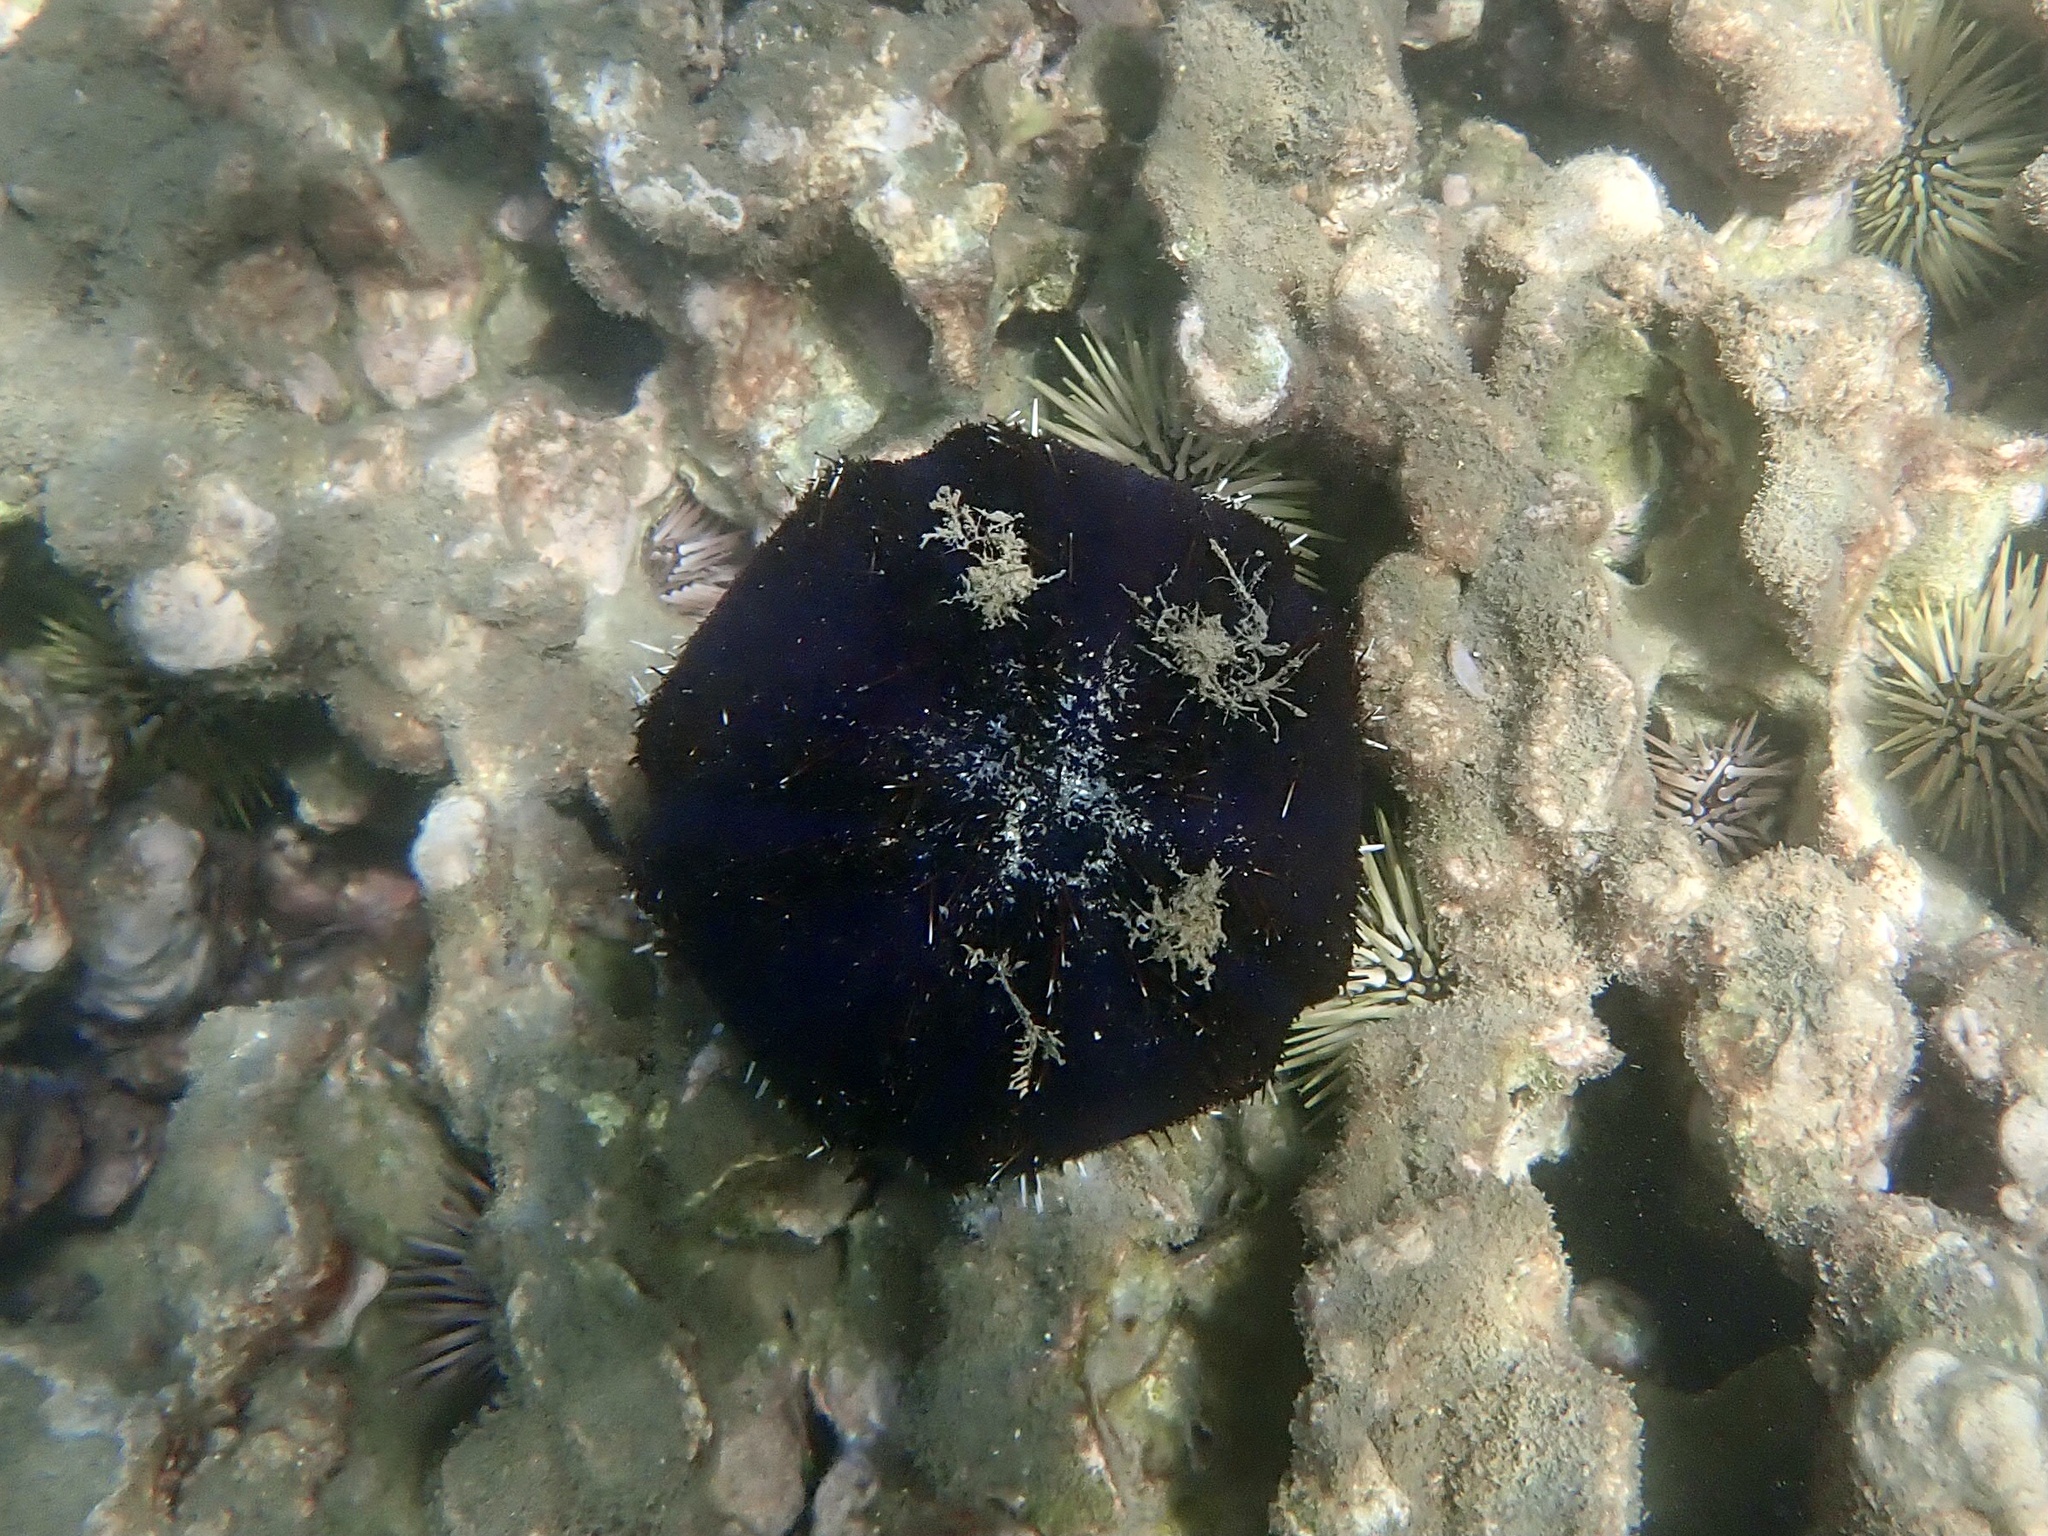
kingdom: Animalia
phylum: Echinodermata
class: Echinoidea
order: Camarodonta
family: Toxopneustidae
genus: Tripneustes
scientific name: Tripneustes gratilla
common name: Bischofsmützenseeigel
